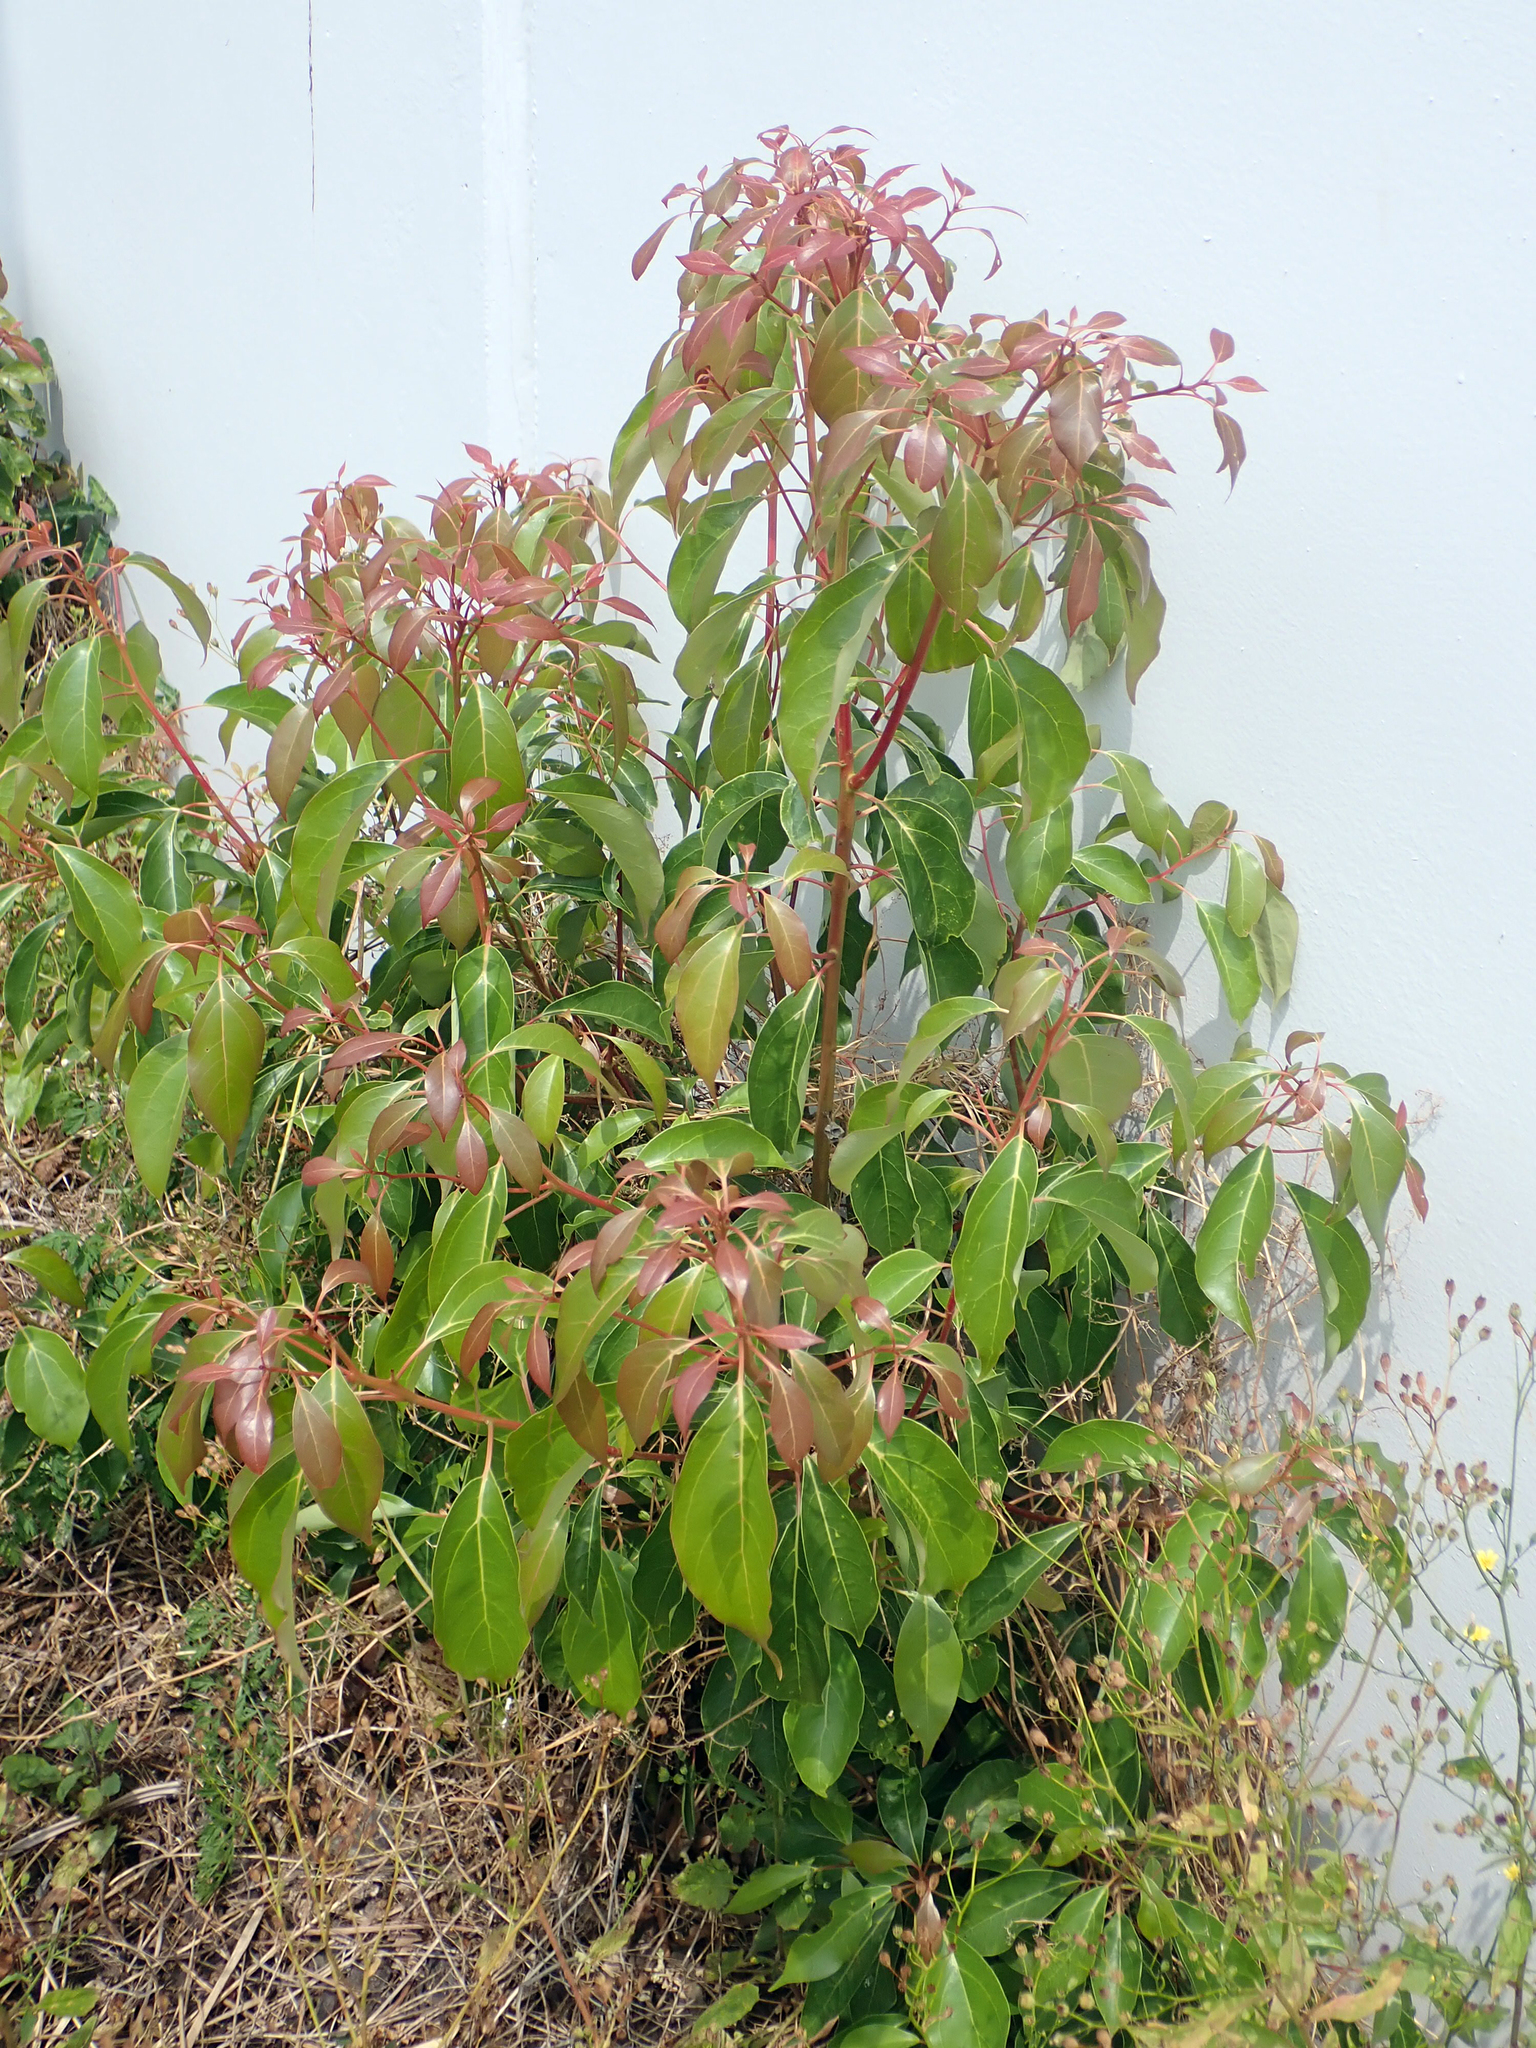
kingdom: Plantae
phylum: Tracheophyta
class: Magnoliopsida
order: Laurales
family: Lauraceae
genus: Cinnamomum
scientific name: Cinnamomum camphora
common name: Camphortree
